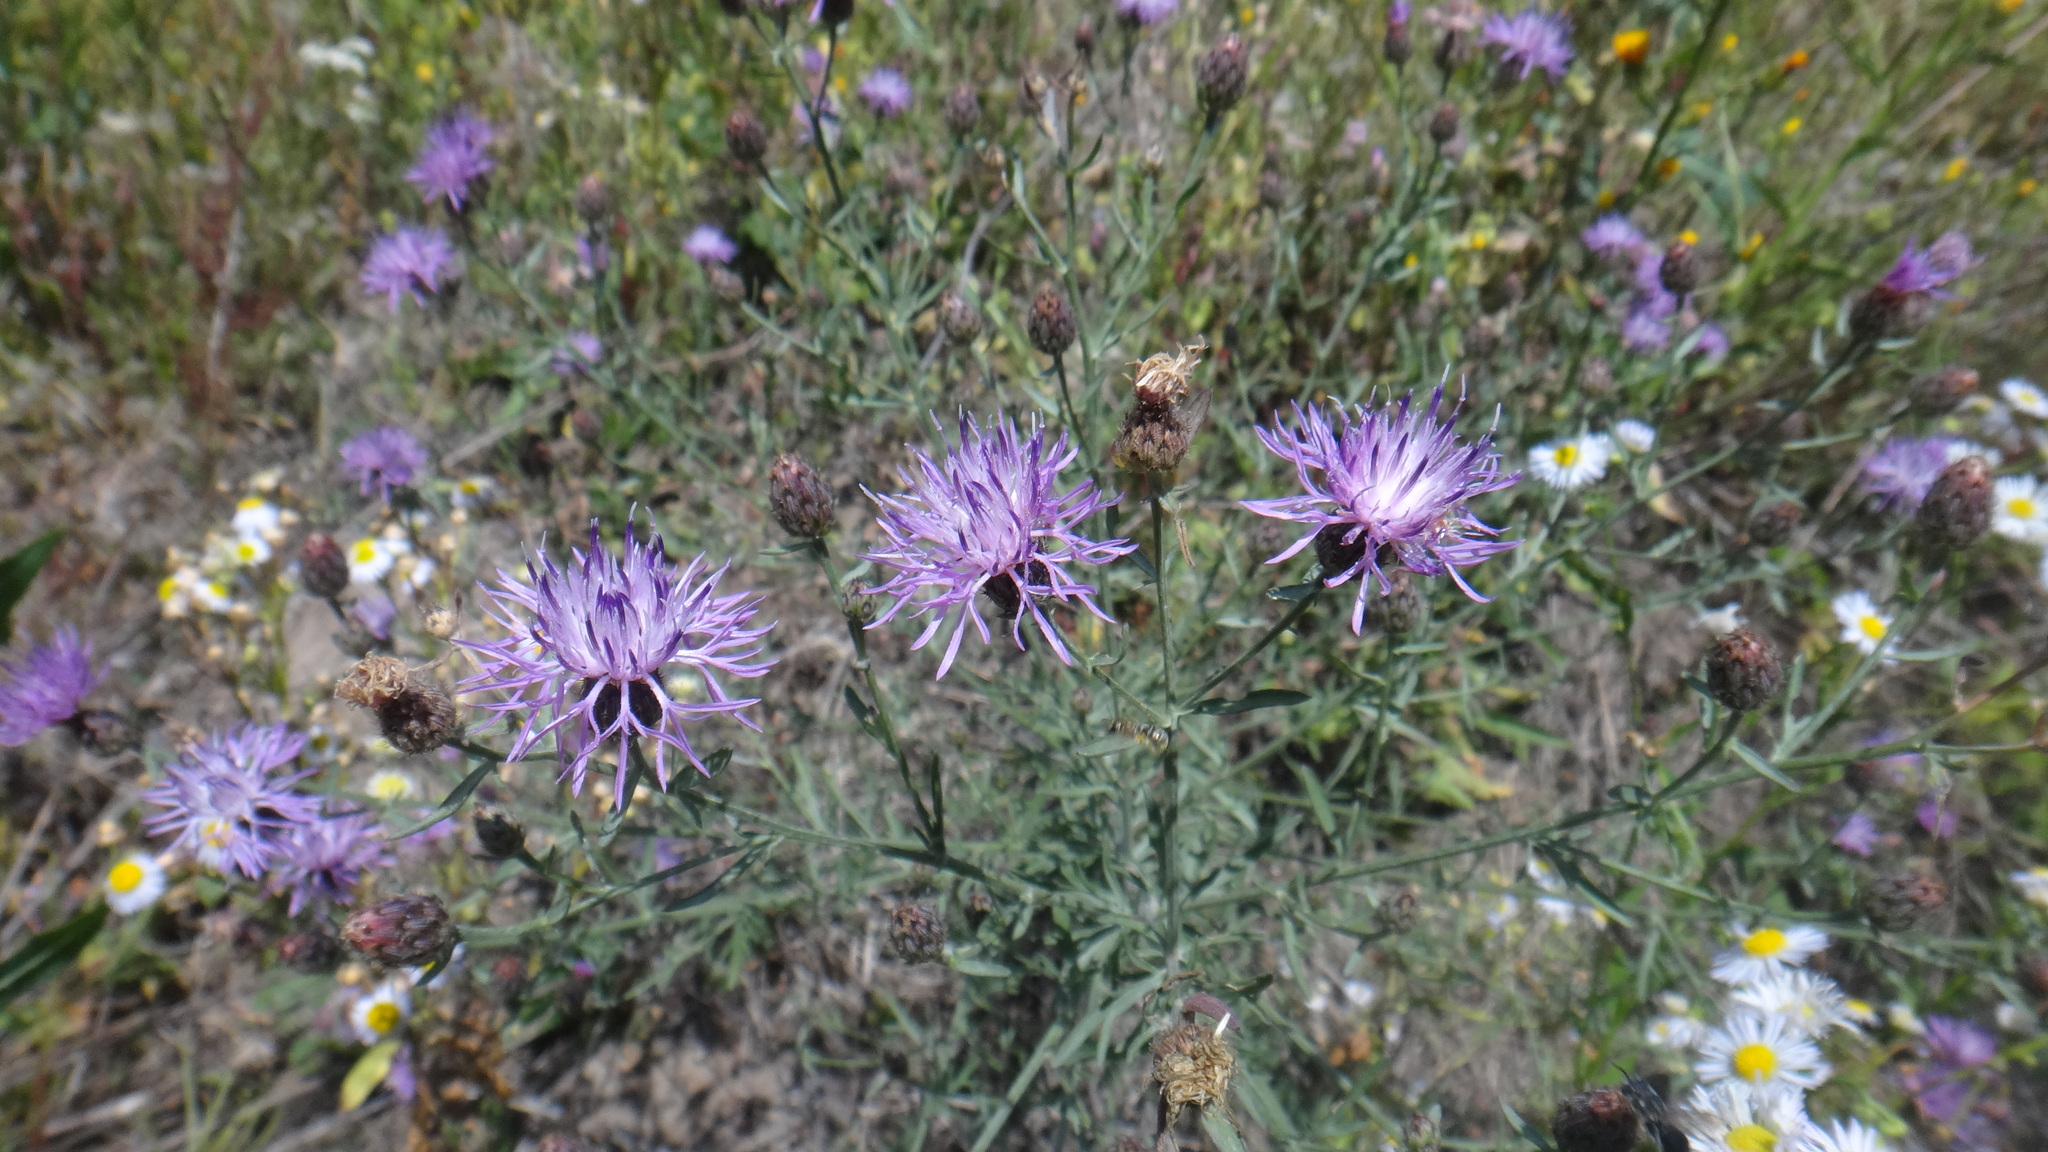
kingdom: Plantae
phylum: Tracheophyta
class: Magnoliopsida
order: Asterales
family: Asteraceae
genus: Centaurea
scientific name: Centaurea stoebe
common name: Spotted knapweed
